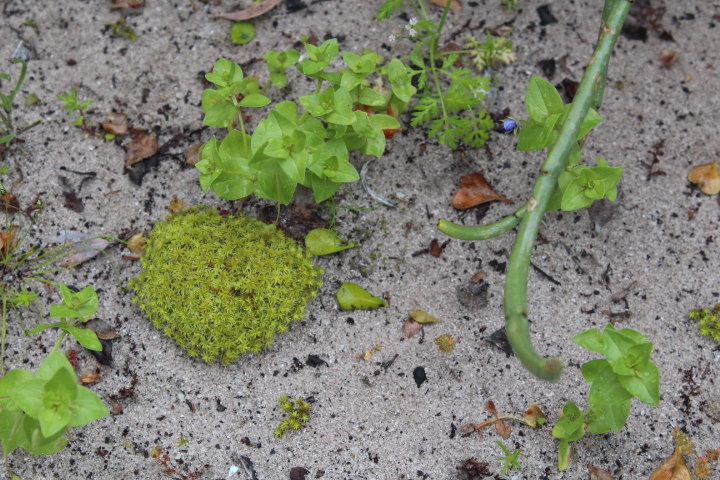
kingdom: Plantae
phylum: Bryophyta
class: Bryopsida
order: Pottiales
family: Pottiaceae
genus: Pseudocrossidium
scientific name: Pseudocrossidium crinitum
